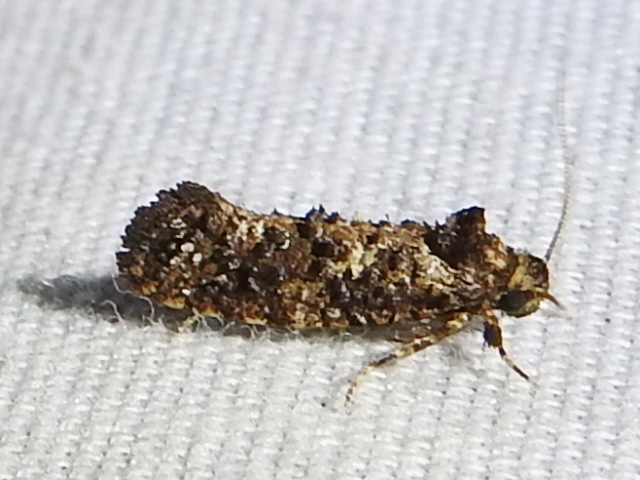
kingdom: Animalia
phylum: Arthropoda
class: Insecta
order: Lepidoptera
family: Tineidae
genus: Acrolophus
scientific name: Acrolophus cressoni
